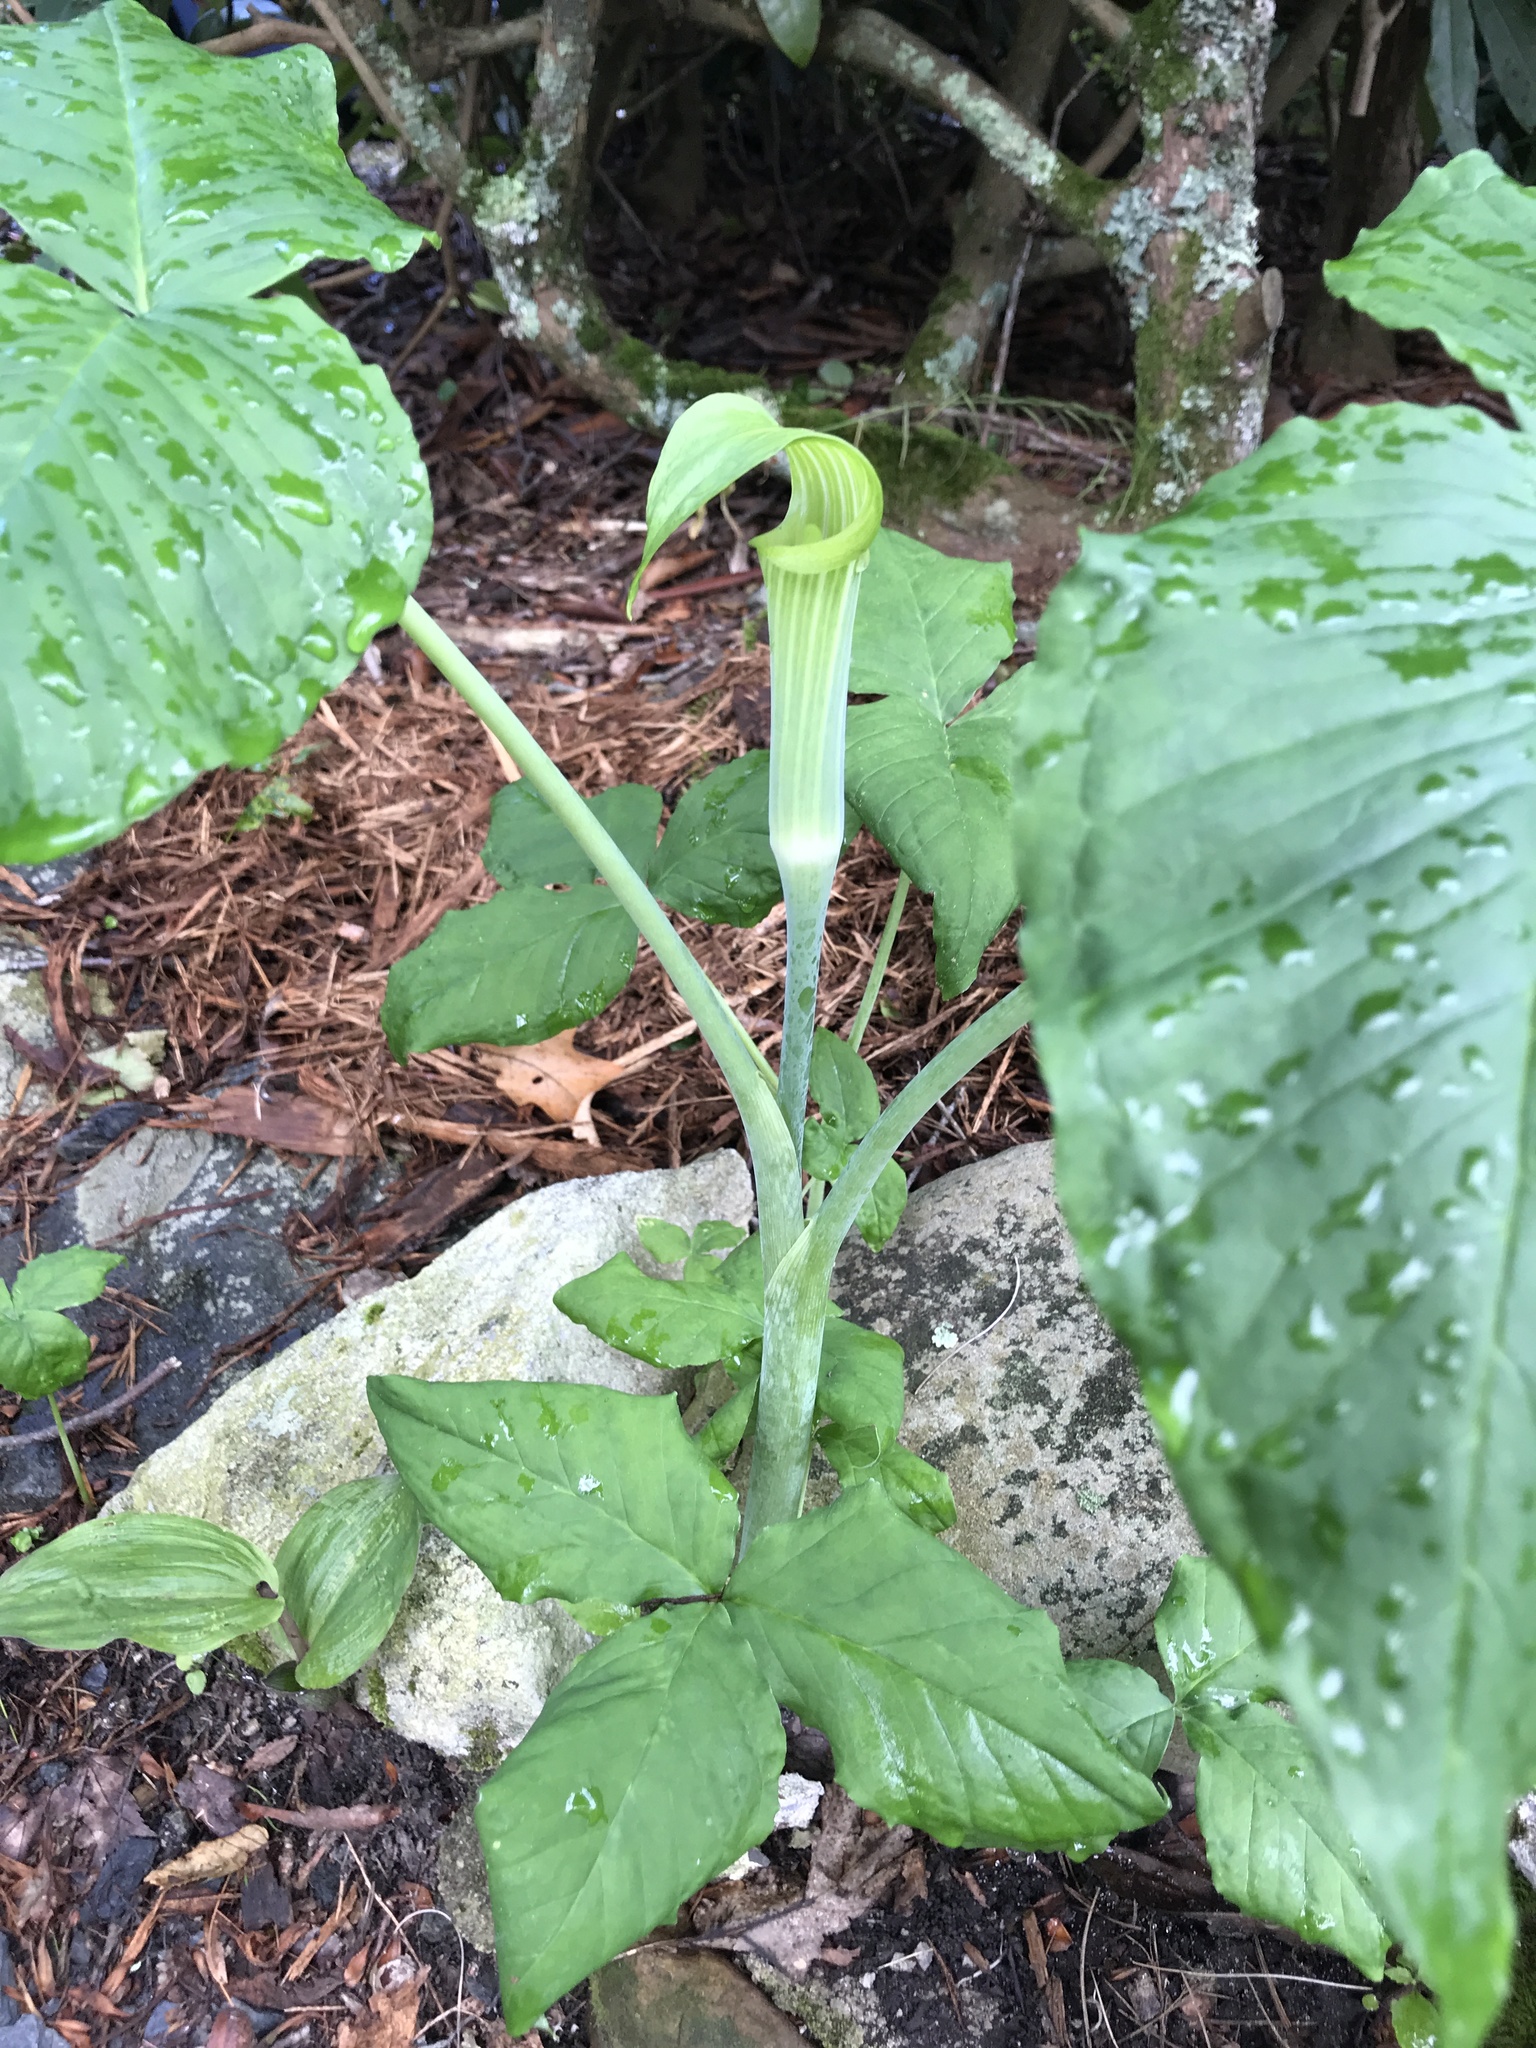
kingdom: Plantae
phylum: Tracheophyta
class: Liliopsida
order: Alismatales
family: Araceae
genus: Arisaema
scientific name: Arisaema triphyllum
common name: Jack-in-the-pulpit
